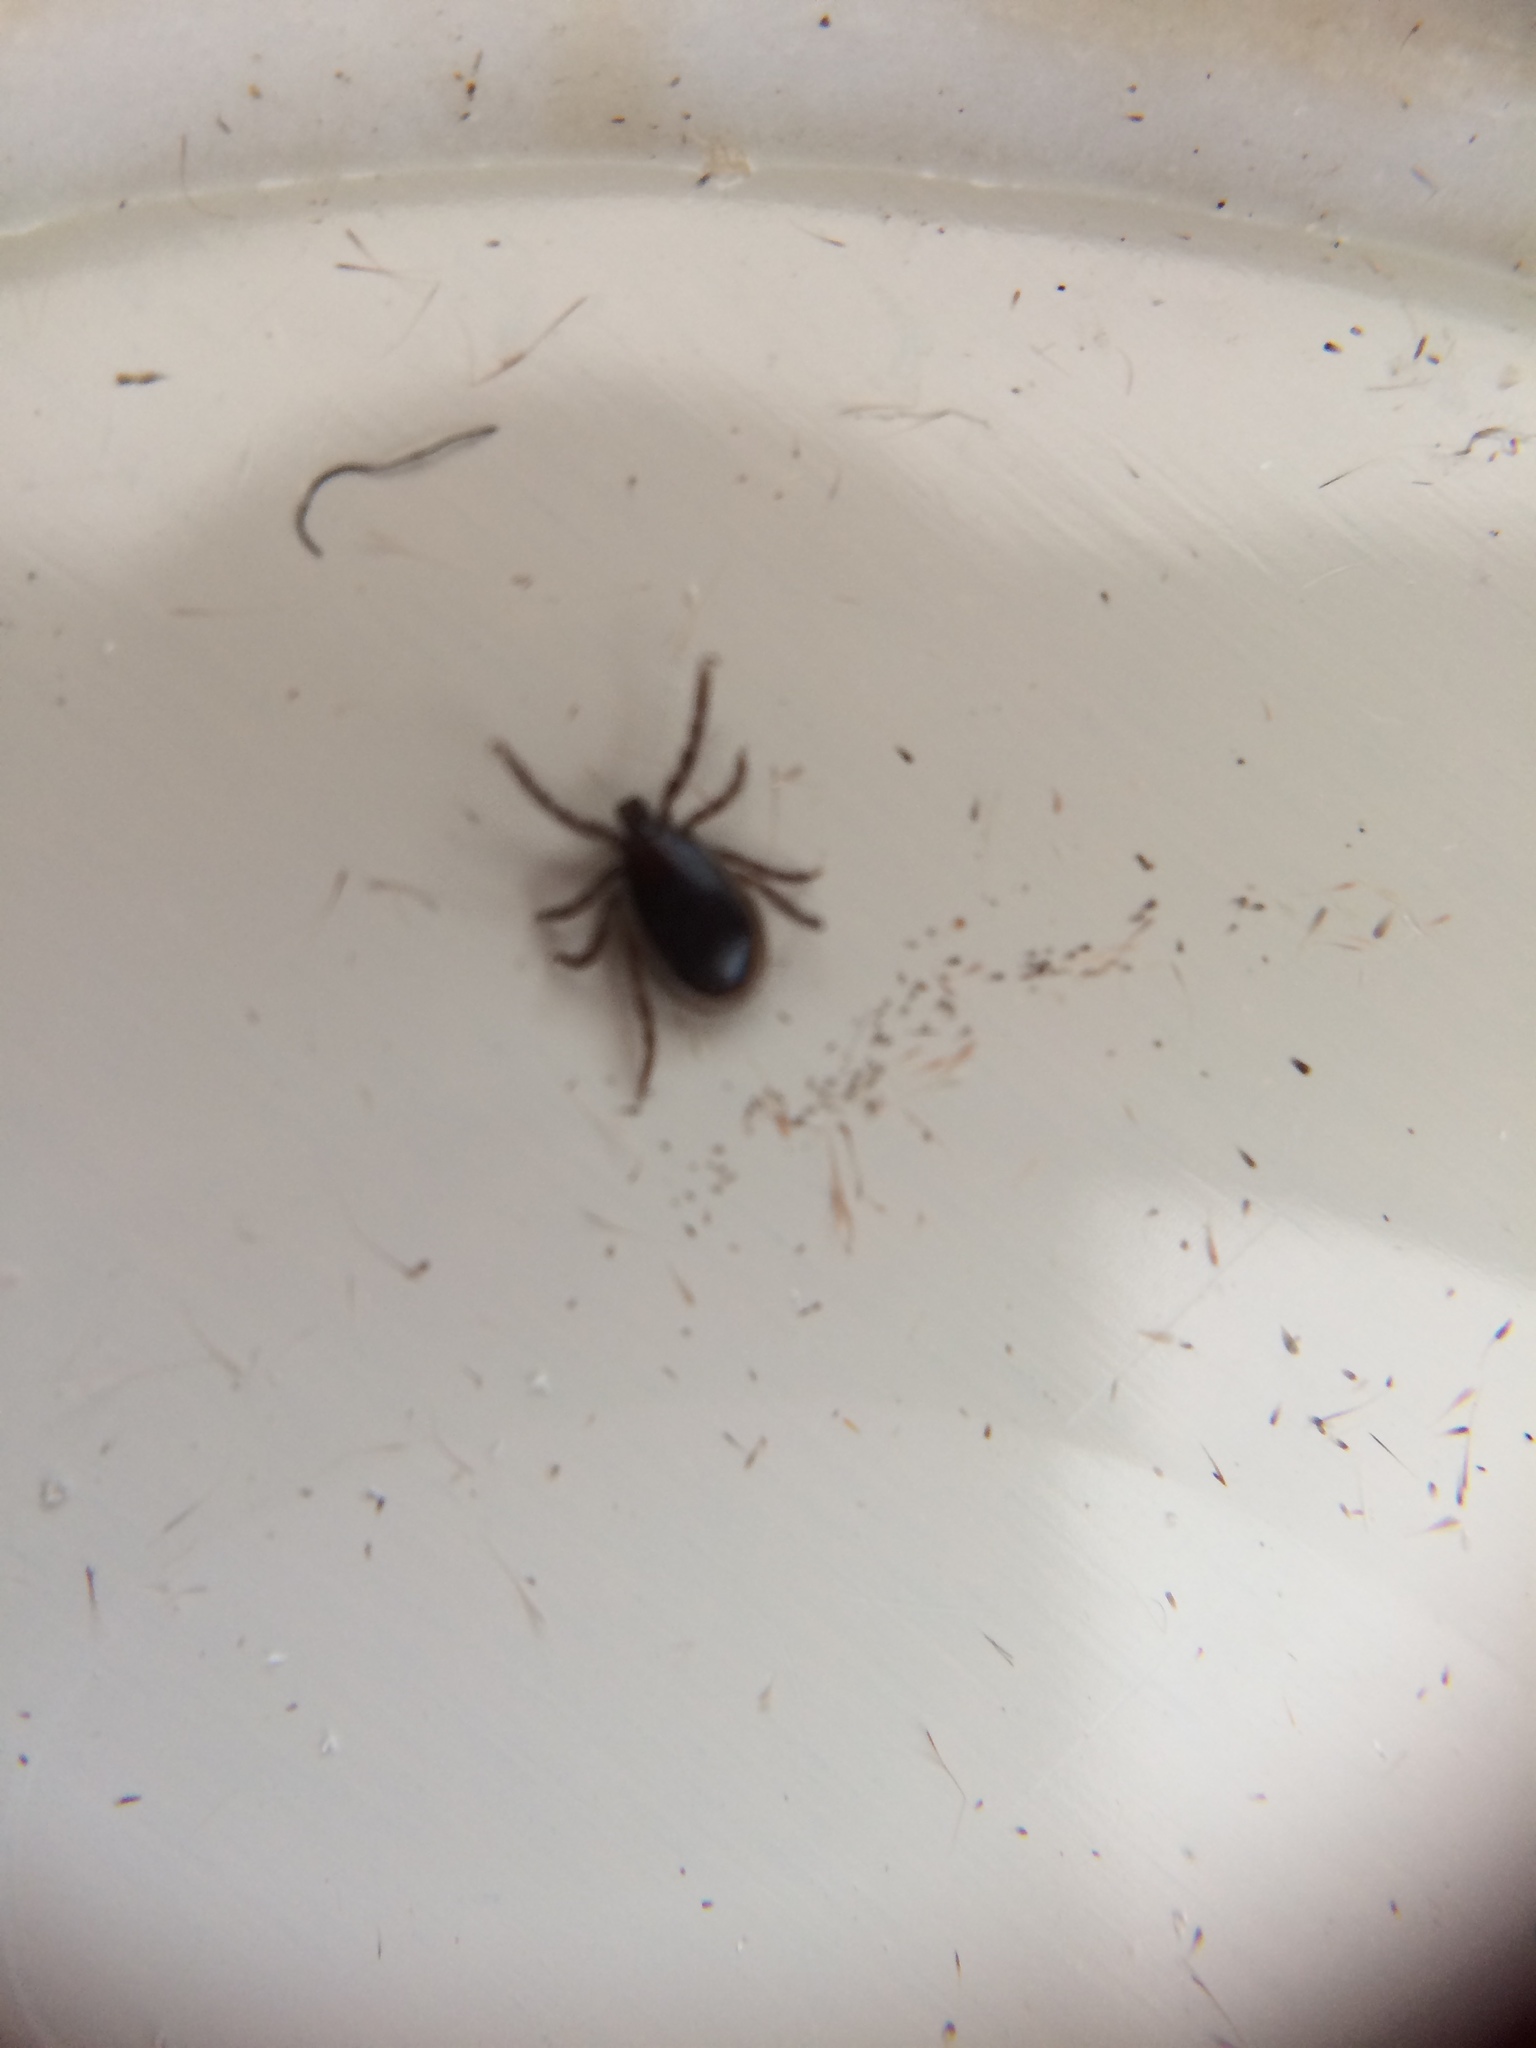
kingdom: Animalia
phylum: Arthropoda
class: Arachnida
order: Ixodida
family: Ixodidae
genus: Ixodes
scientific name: Ixodes ricinus
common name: Castor bean tick
